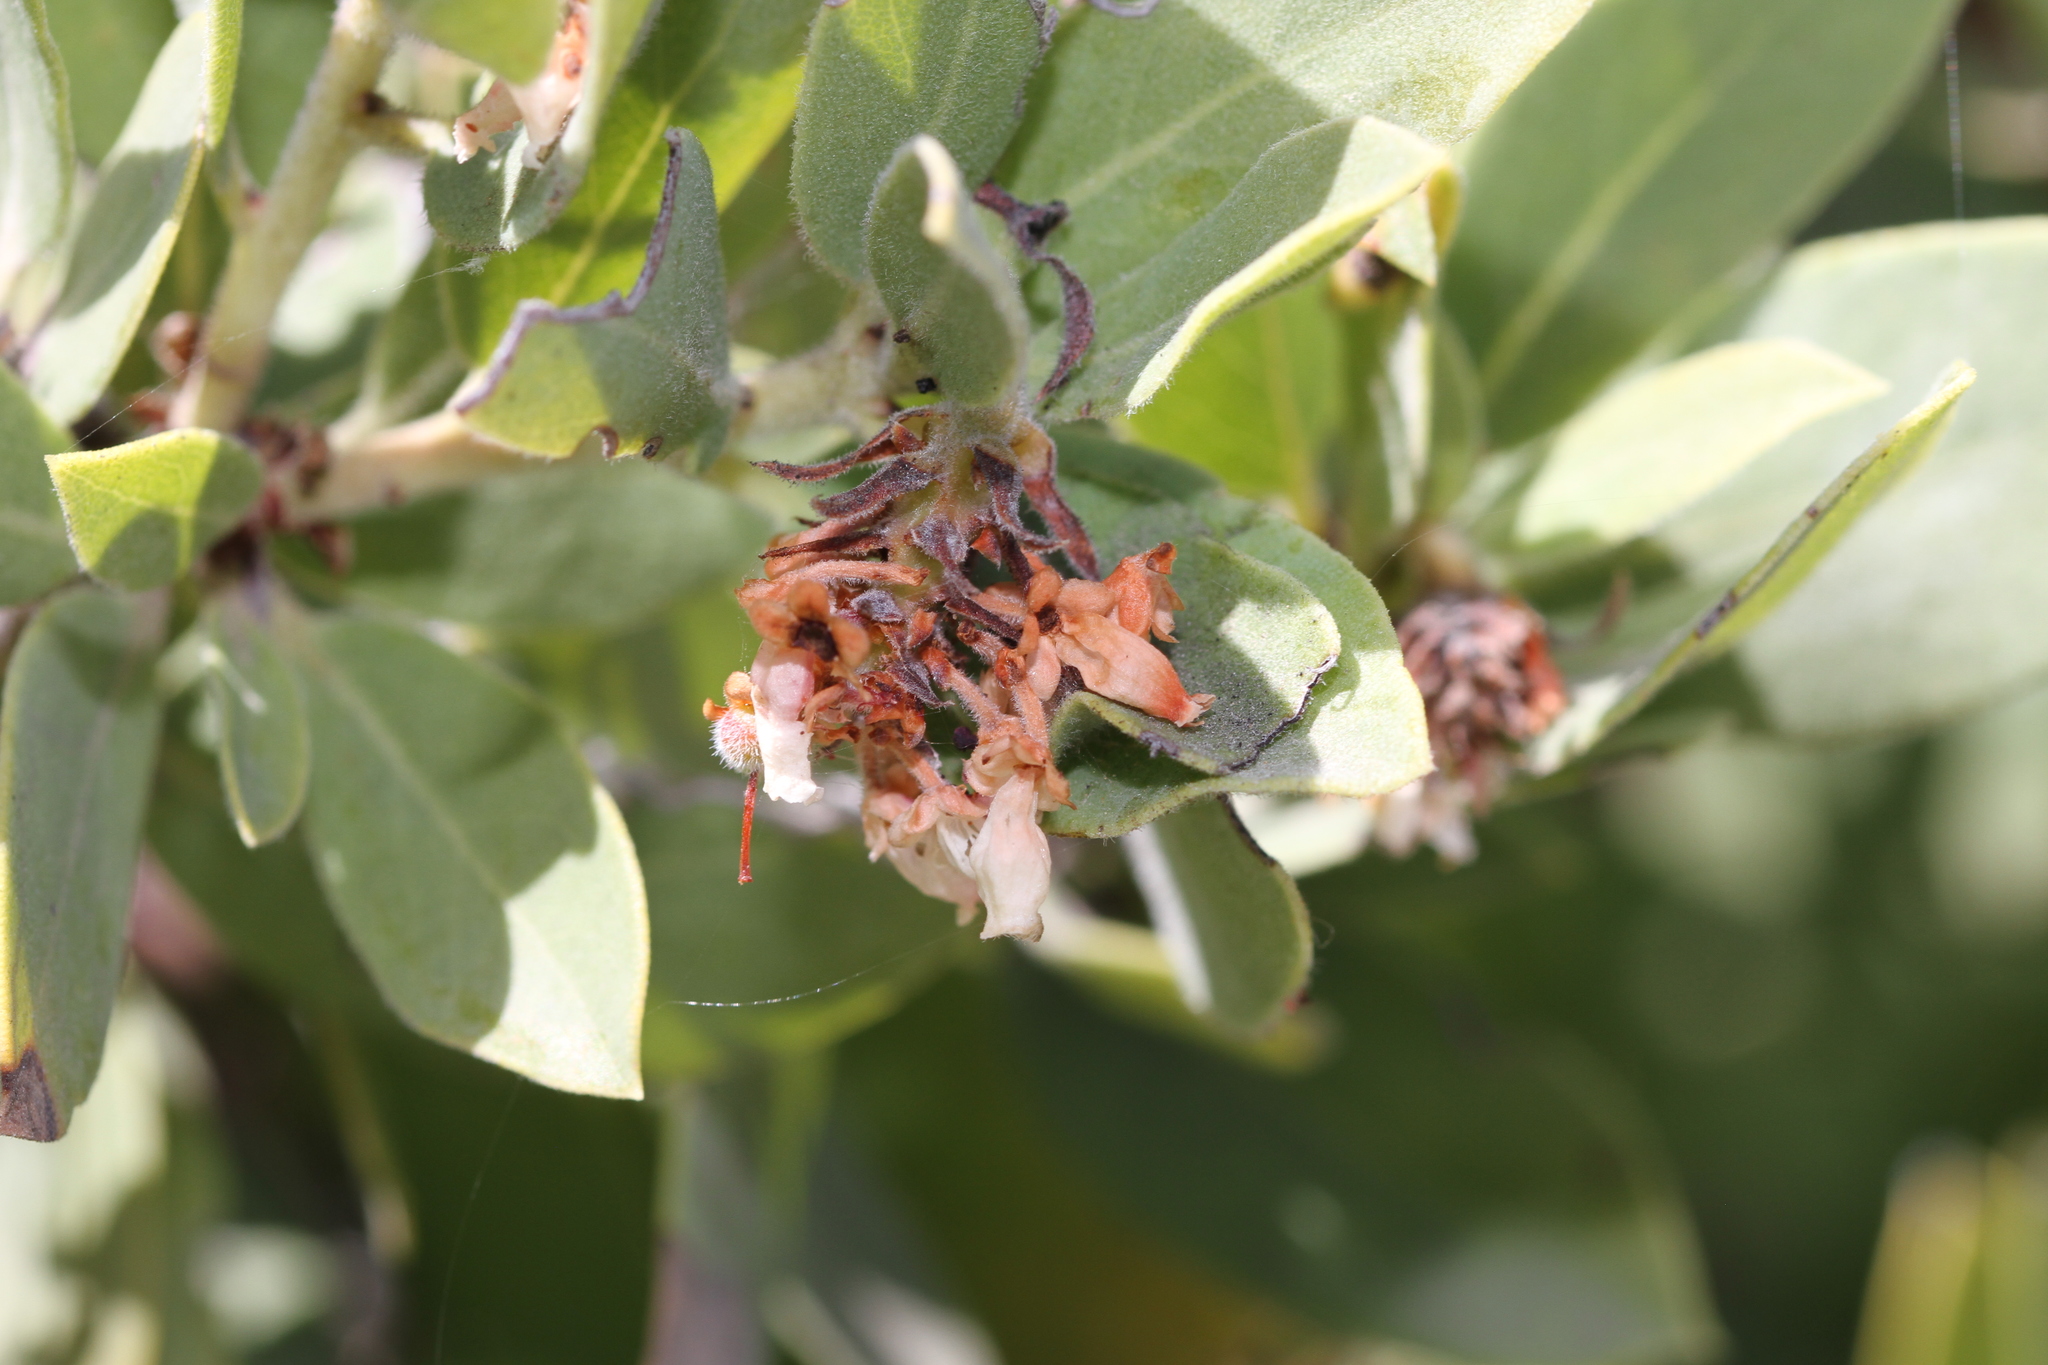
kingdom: Plantae
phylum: Tracheophyta
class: Magnoliopsida
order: Ericales
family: Ericaceae
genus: Arctostaphylos
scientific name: Arctostaphylos glandulosa
